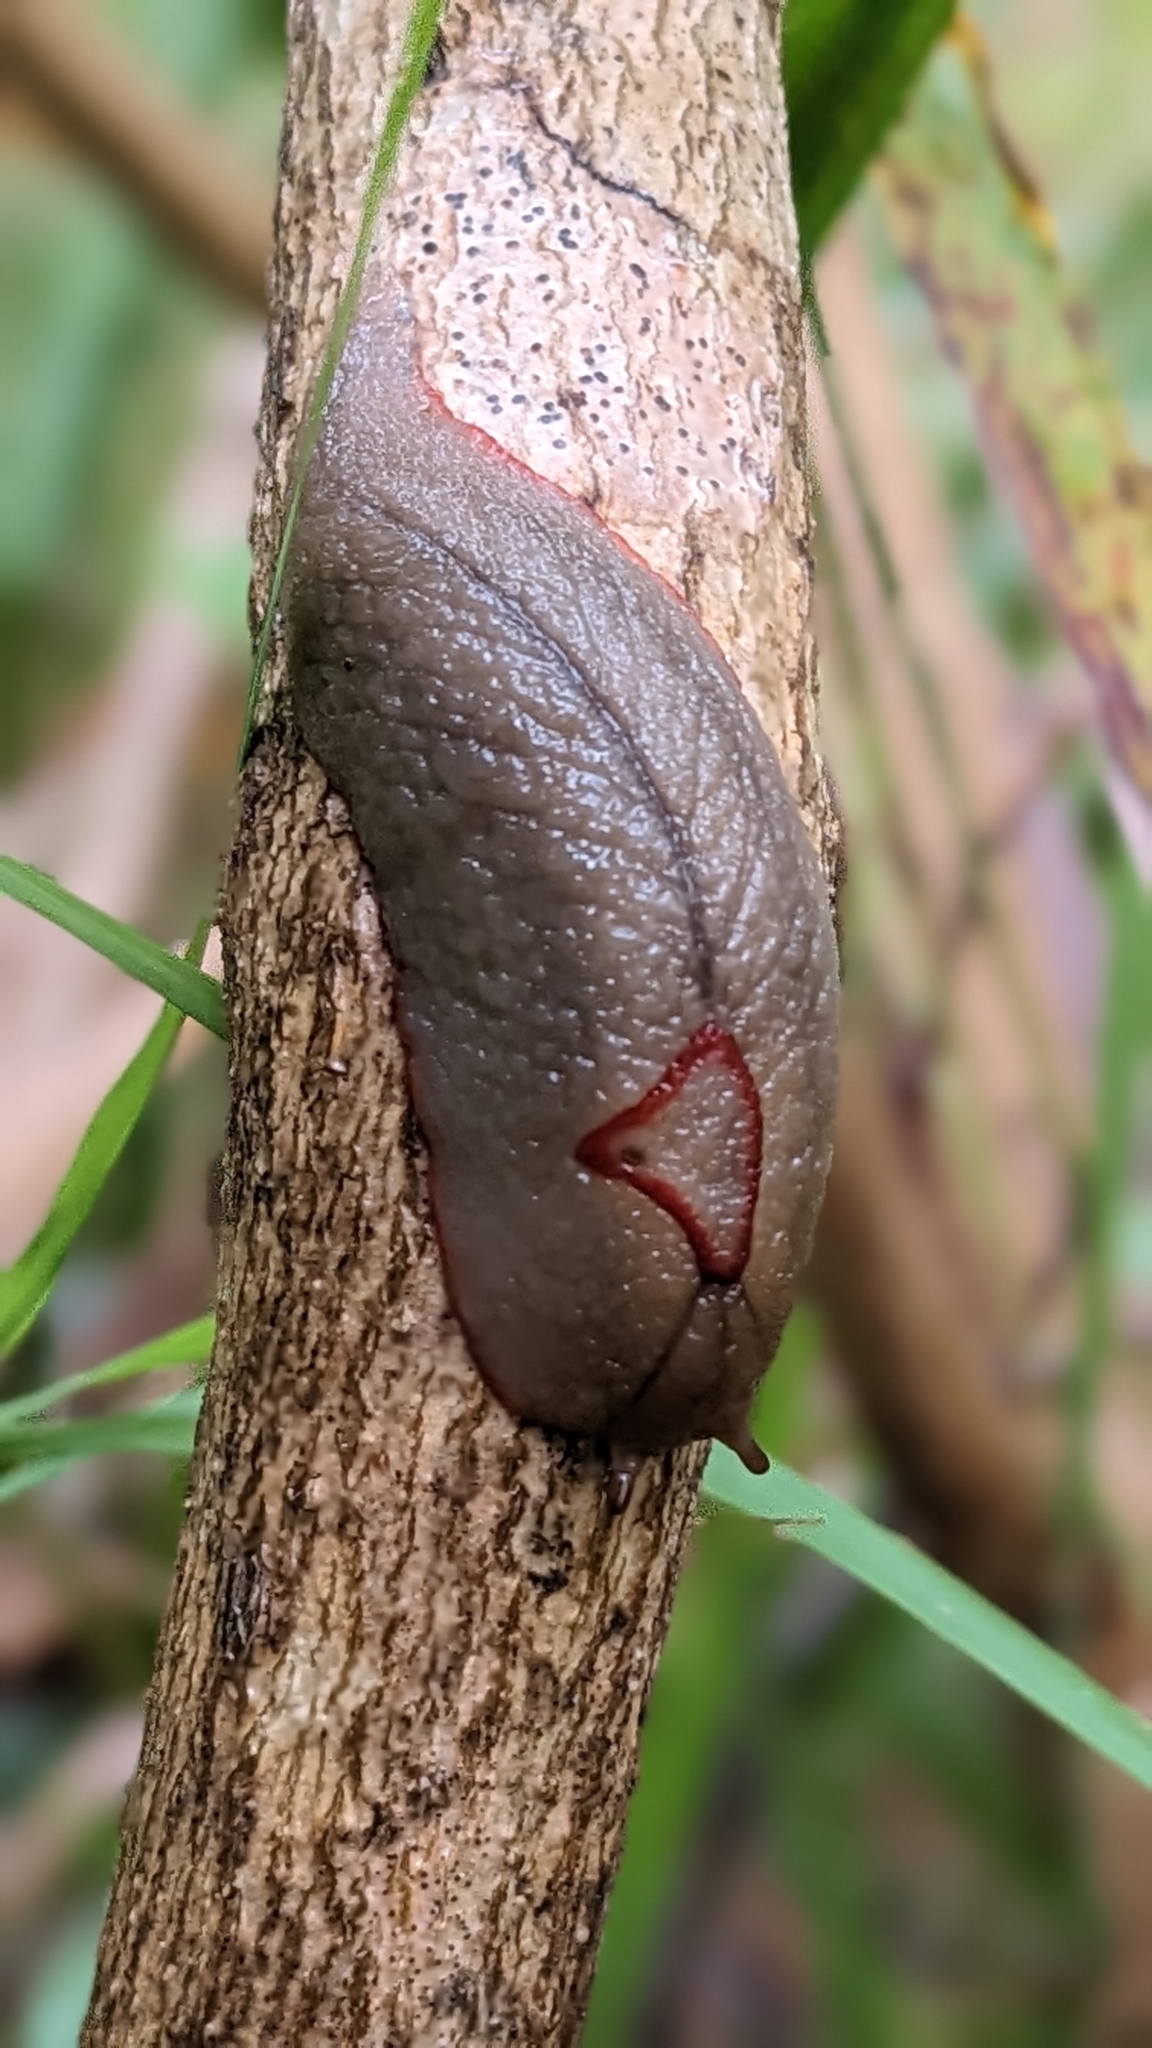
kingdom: Animalia
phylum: Mollusca
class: Gastropoda
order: Stylommatophora
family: Athoracophoridae
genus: Triboniophorus
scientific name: Triboniophorus graeffei
